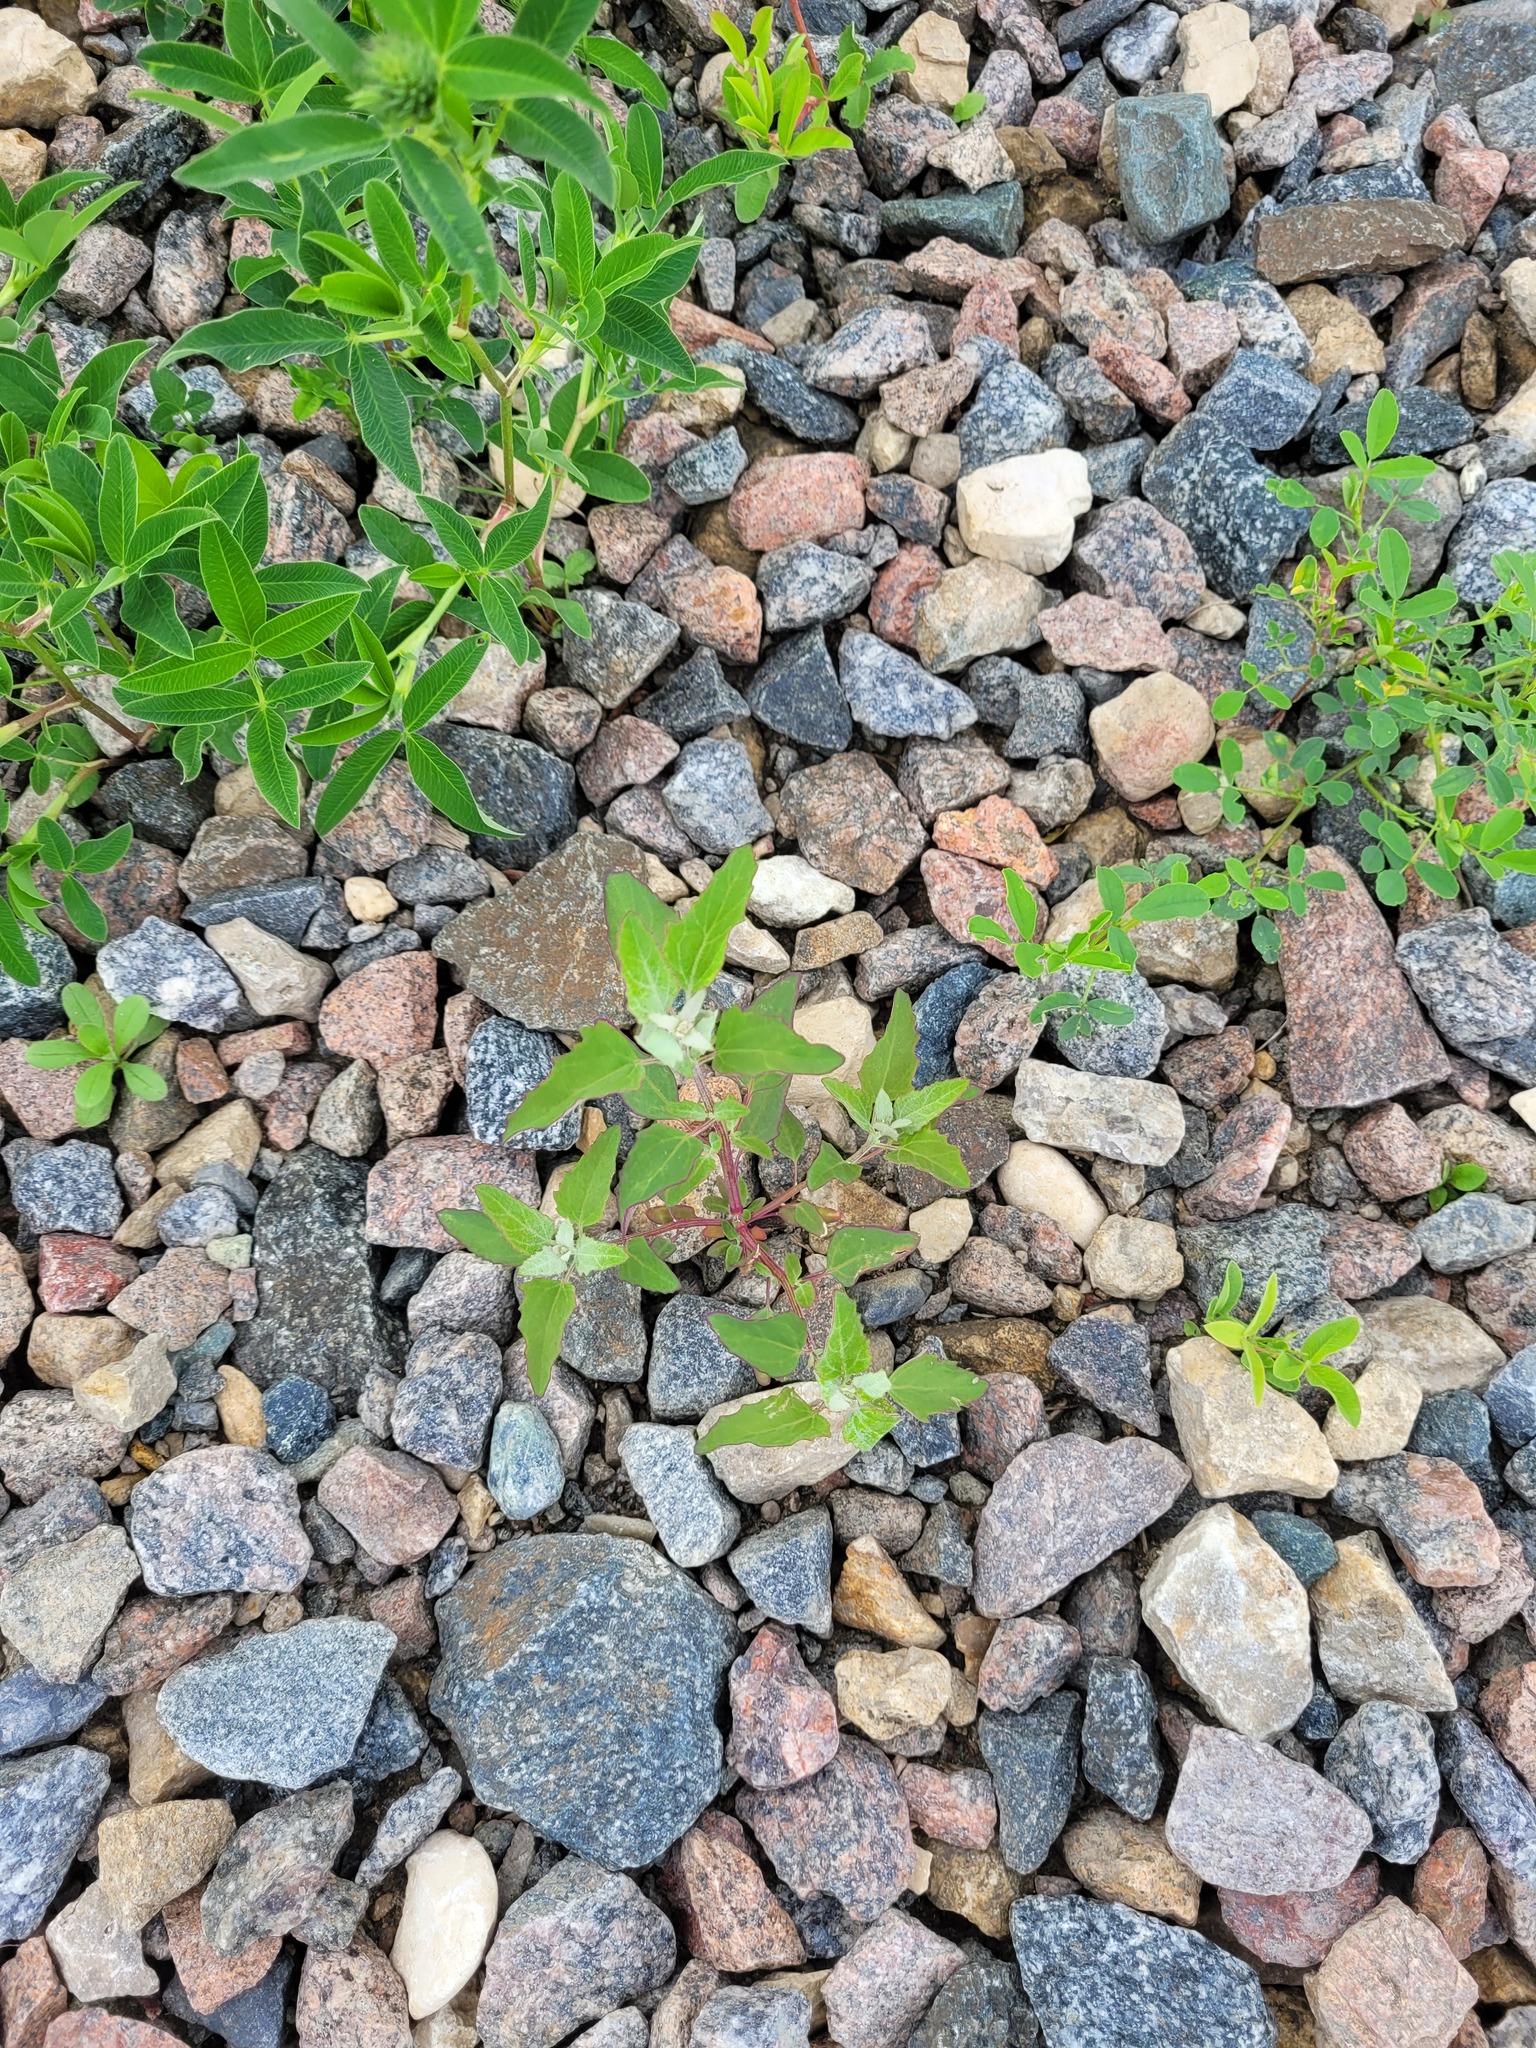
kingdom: Plantae
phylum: Tracheophyta
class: Magnoliopsida
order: Caryophyllales
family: Amaranthaceae
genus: Chenopodium
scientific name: Chenopodium album
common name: Fat-hen
